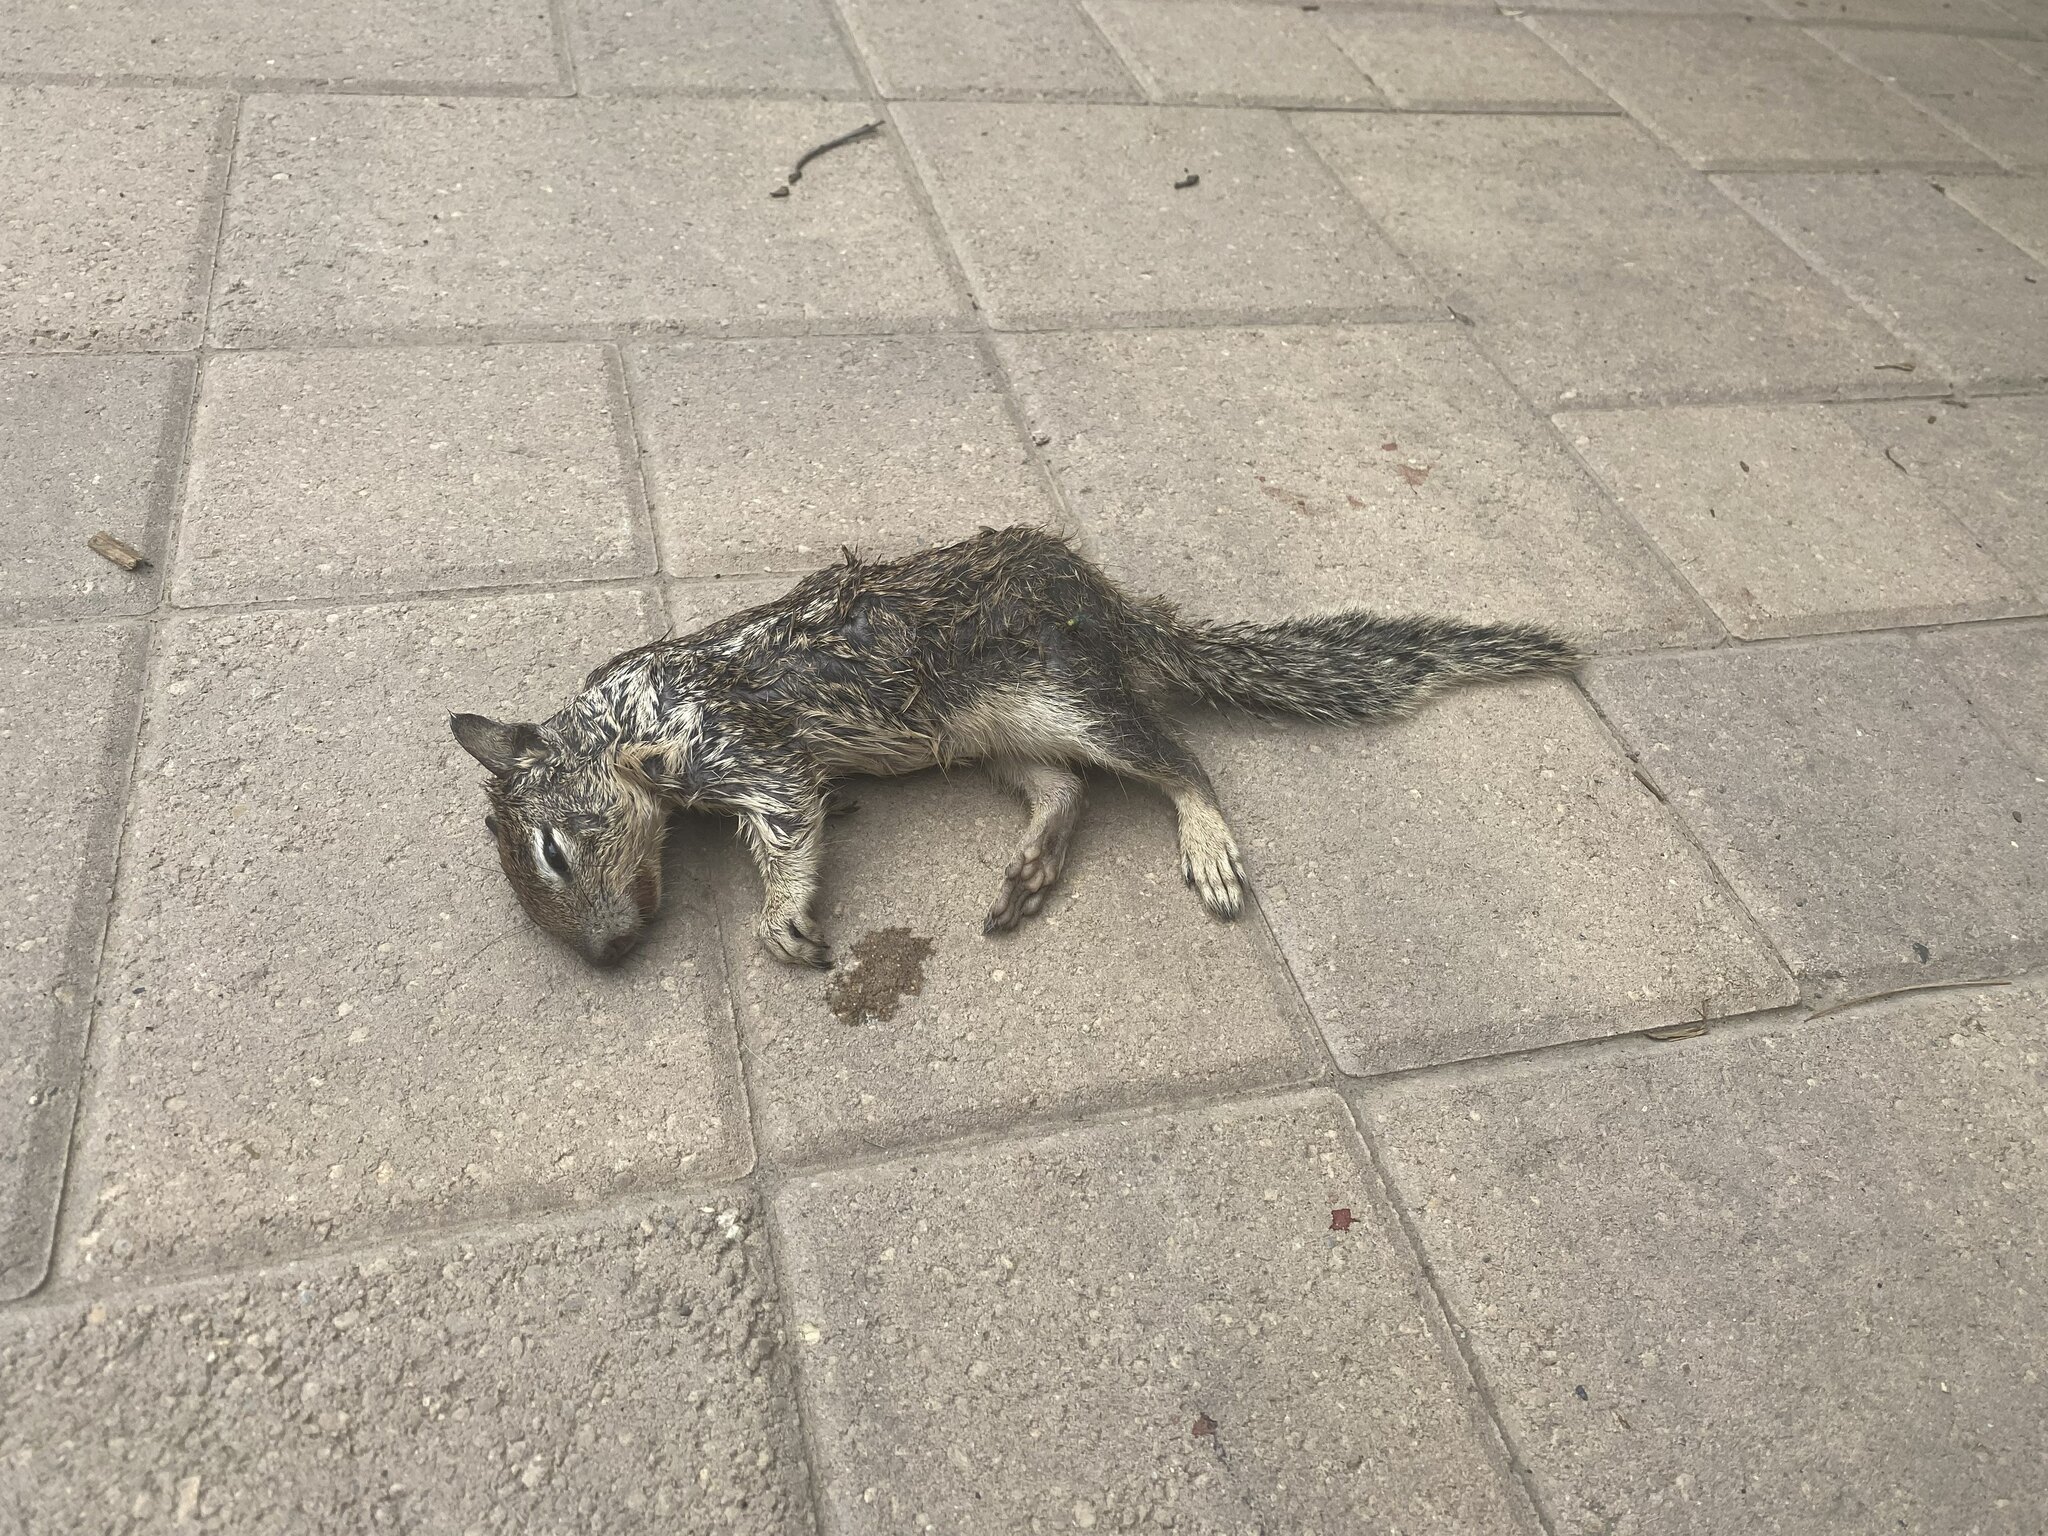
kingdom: Animalia
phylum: Chordata
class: Mammalia
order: Rodentia
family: Sciuridae
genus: Otospermophilus
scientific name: Otospermophilus beecheyi
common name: California ground squirrel
